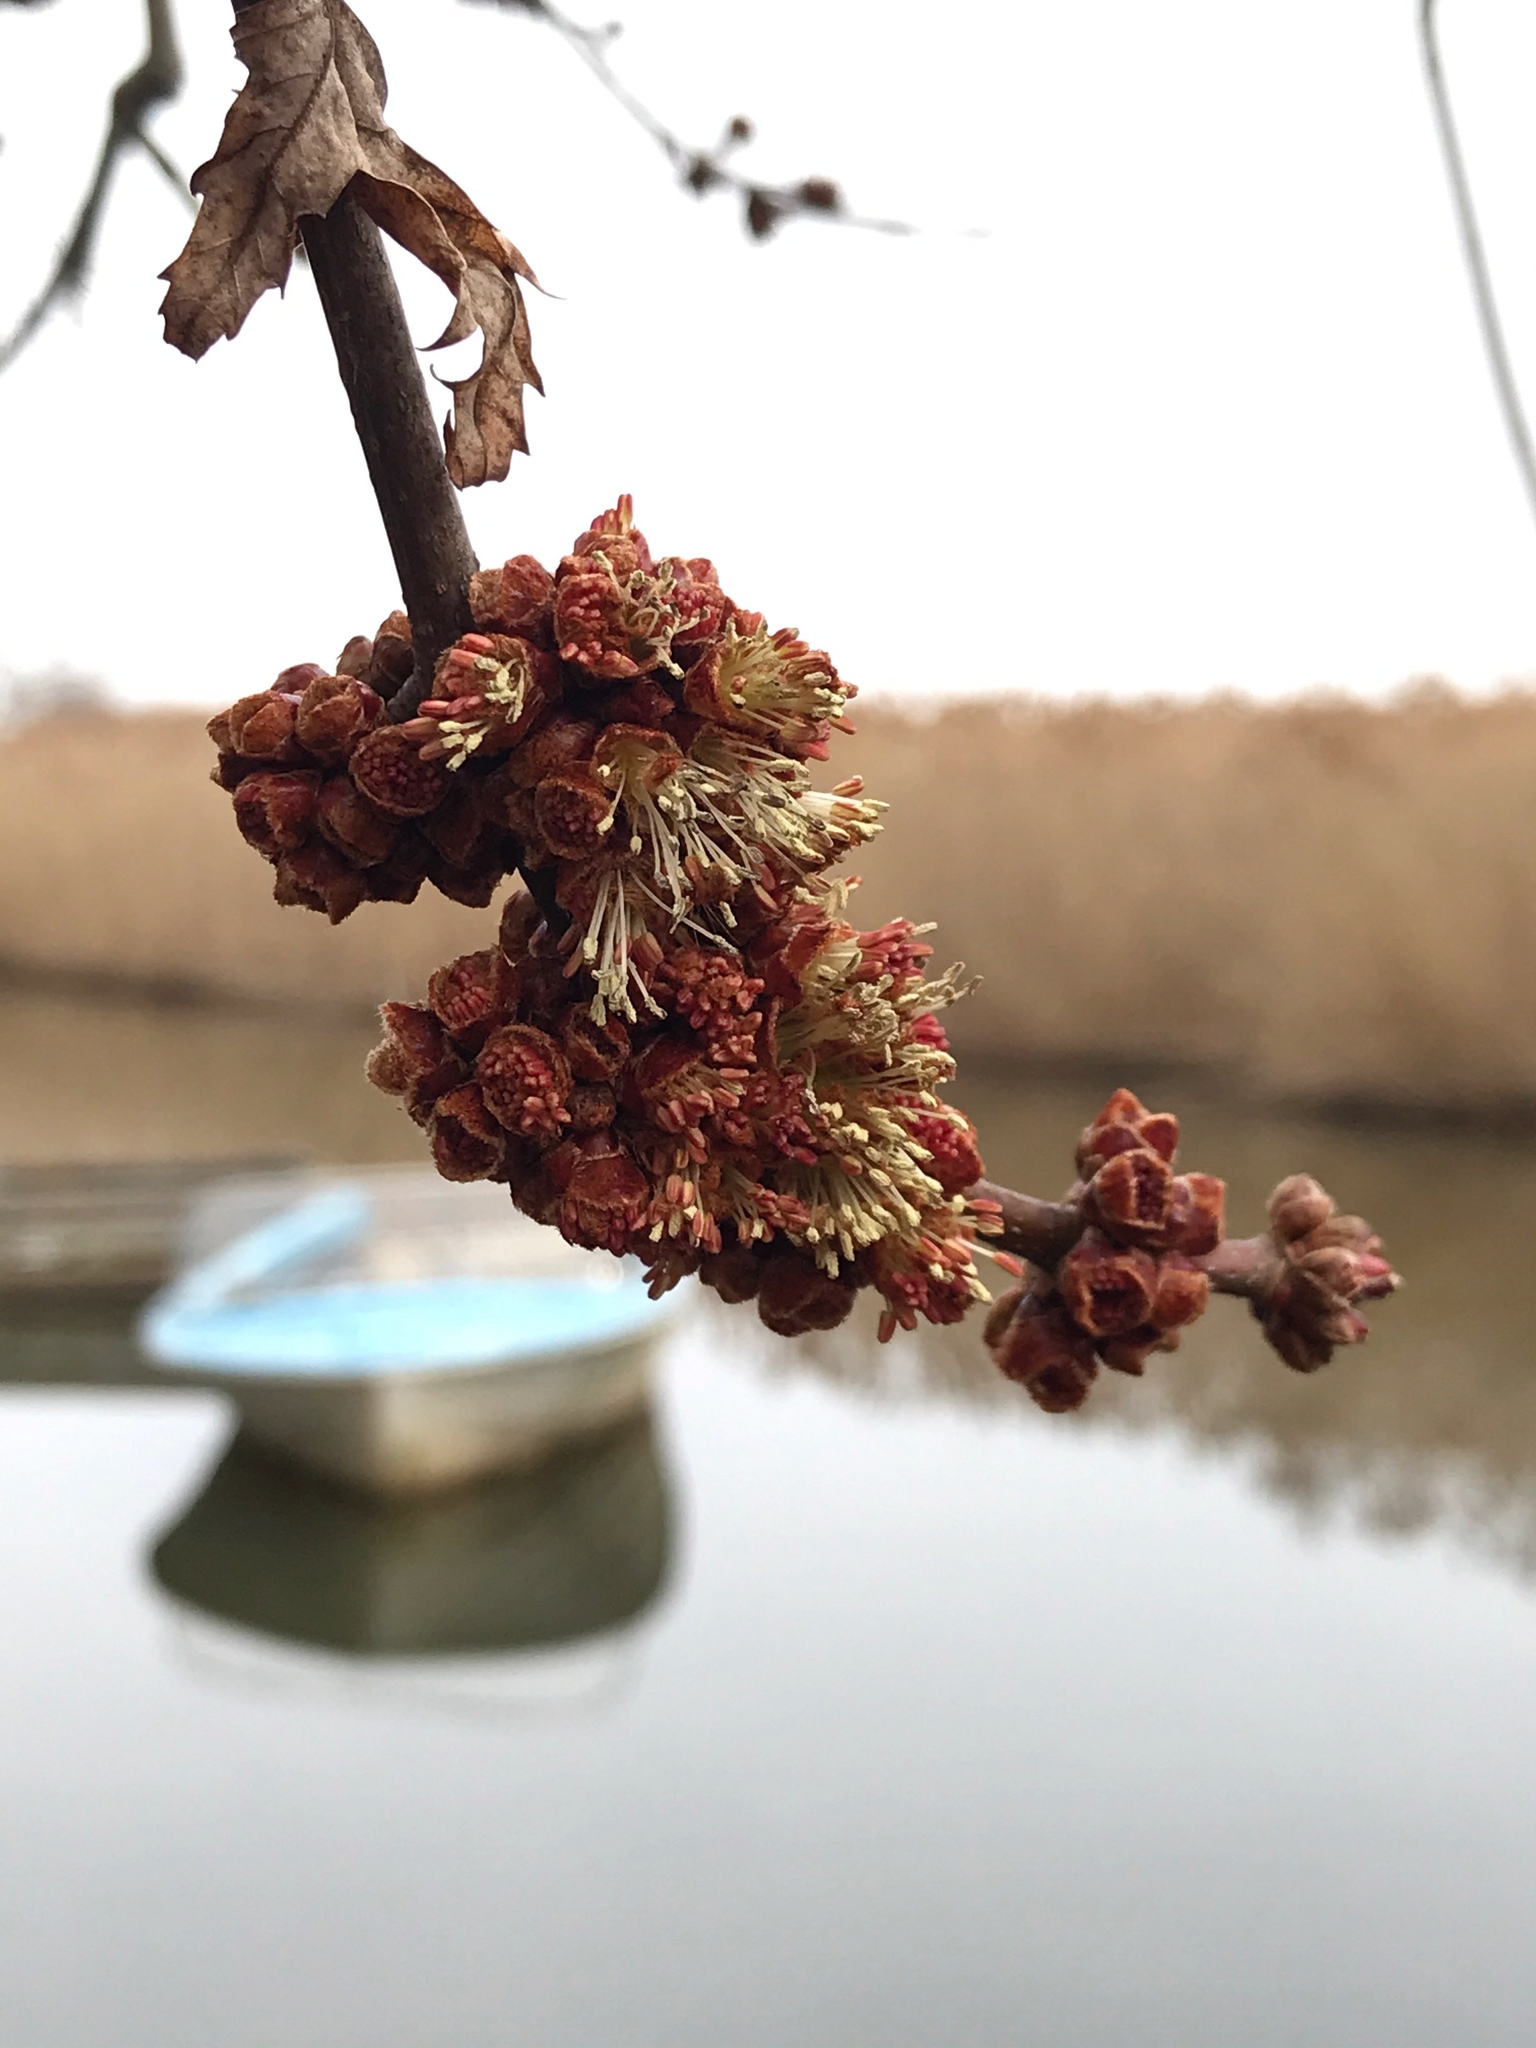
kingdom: Plantae
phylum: Tracheophyta
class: Magnoliopsida
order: Sapindales
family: Sapindaceae
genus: Acer
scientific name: Acer saccharinum
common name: Silver maple
